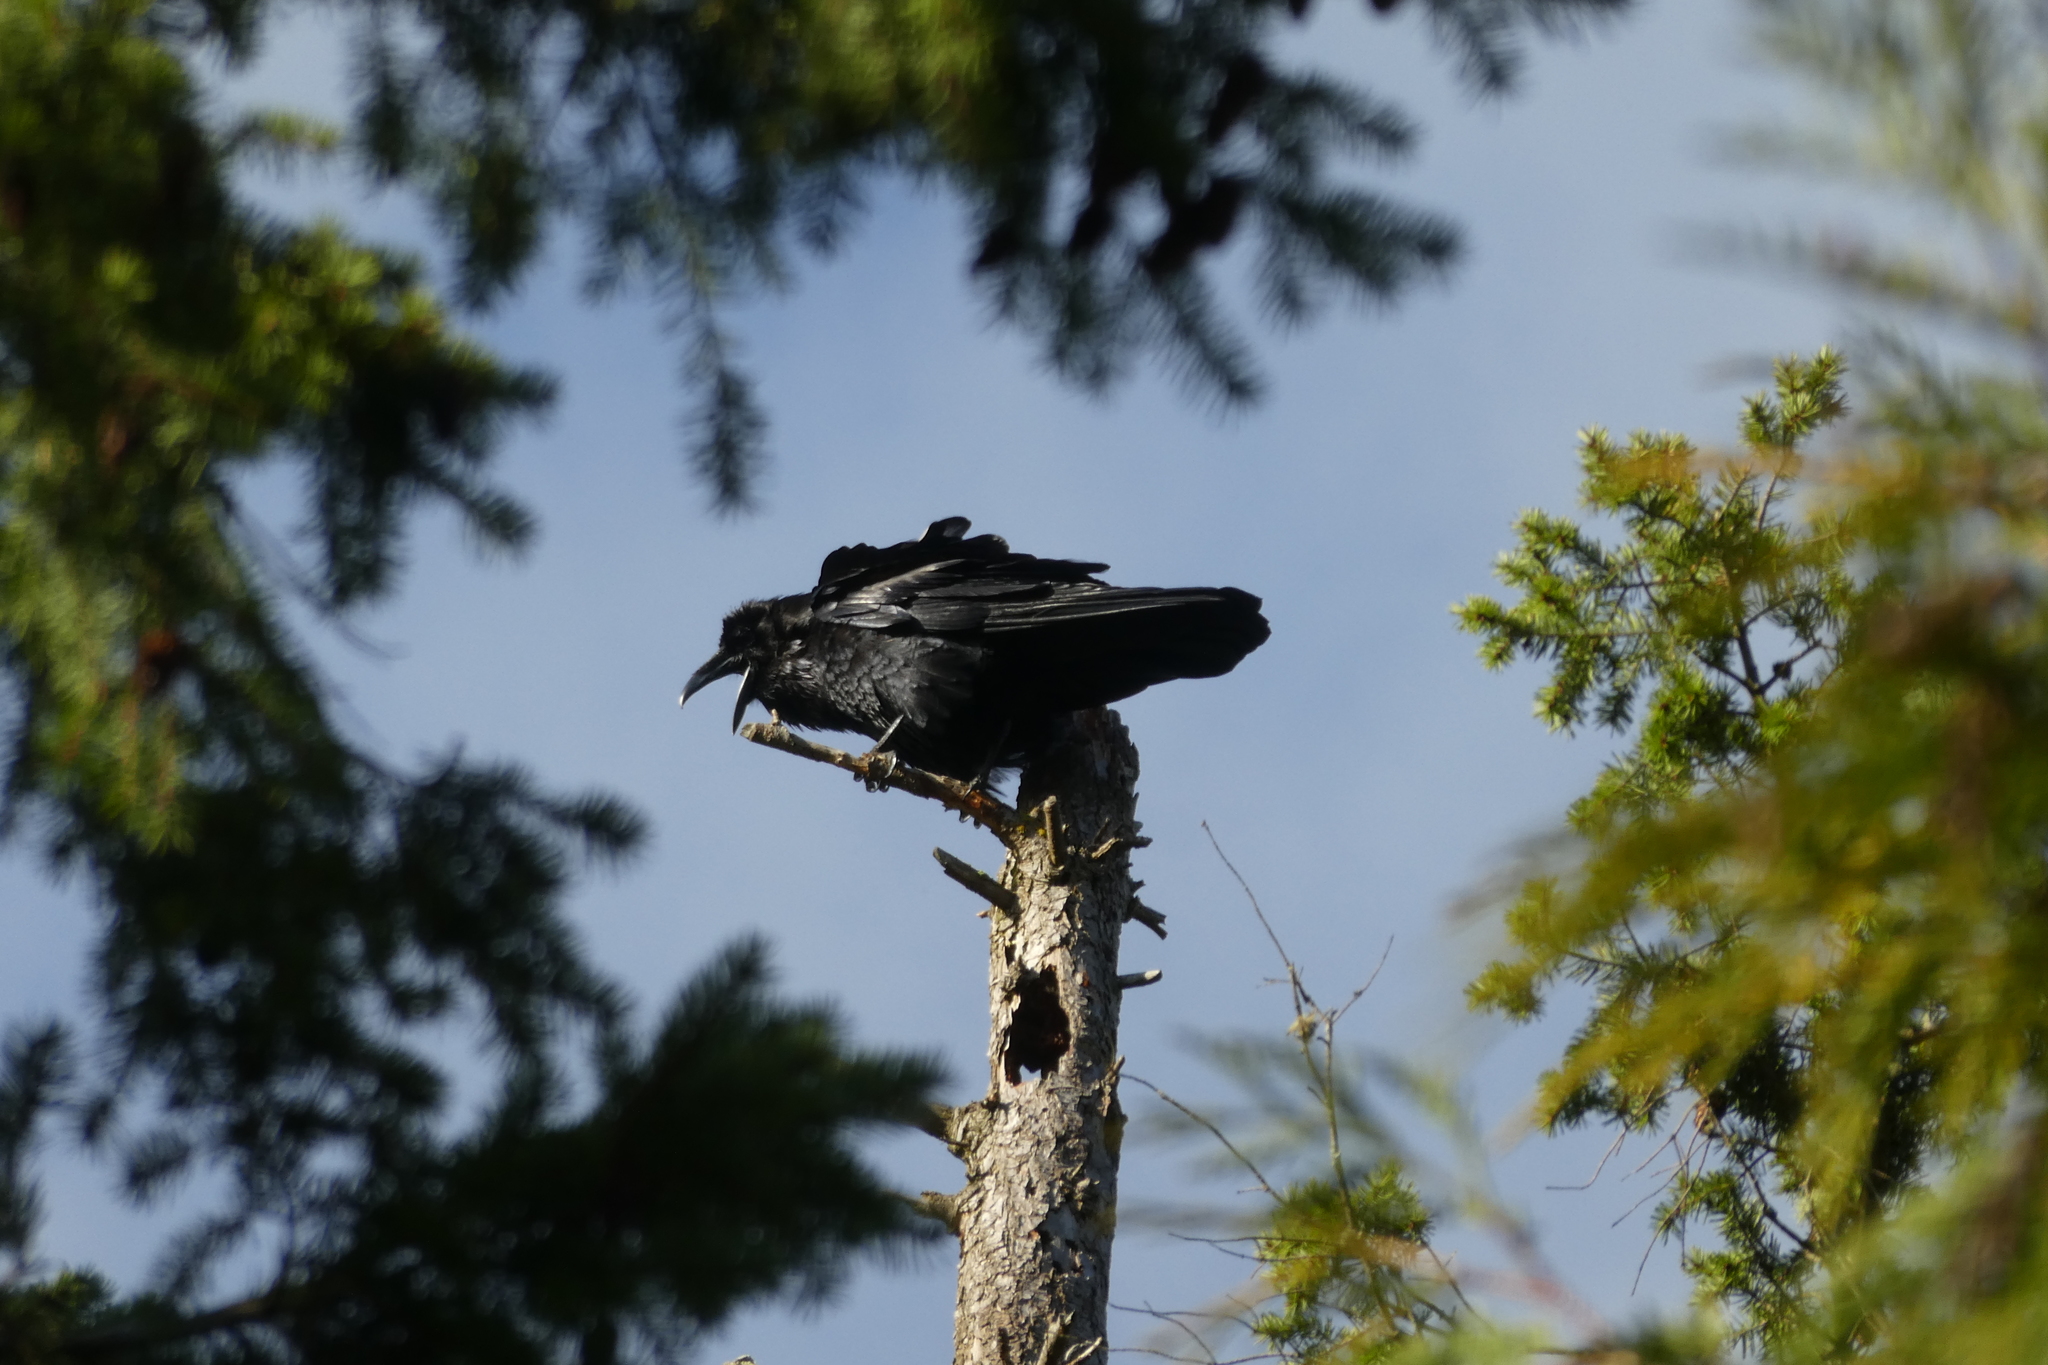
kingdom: Animalia
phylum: Chordata
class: Aves
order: Passeriformes
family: Corvidae
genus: Corvus
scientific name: Corvus corax
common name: Common raven
